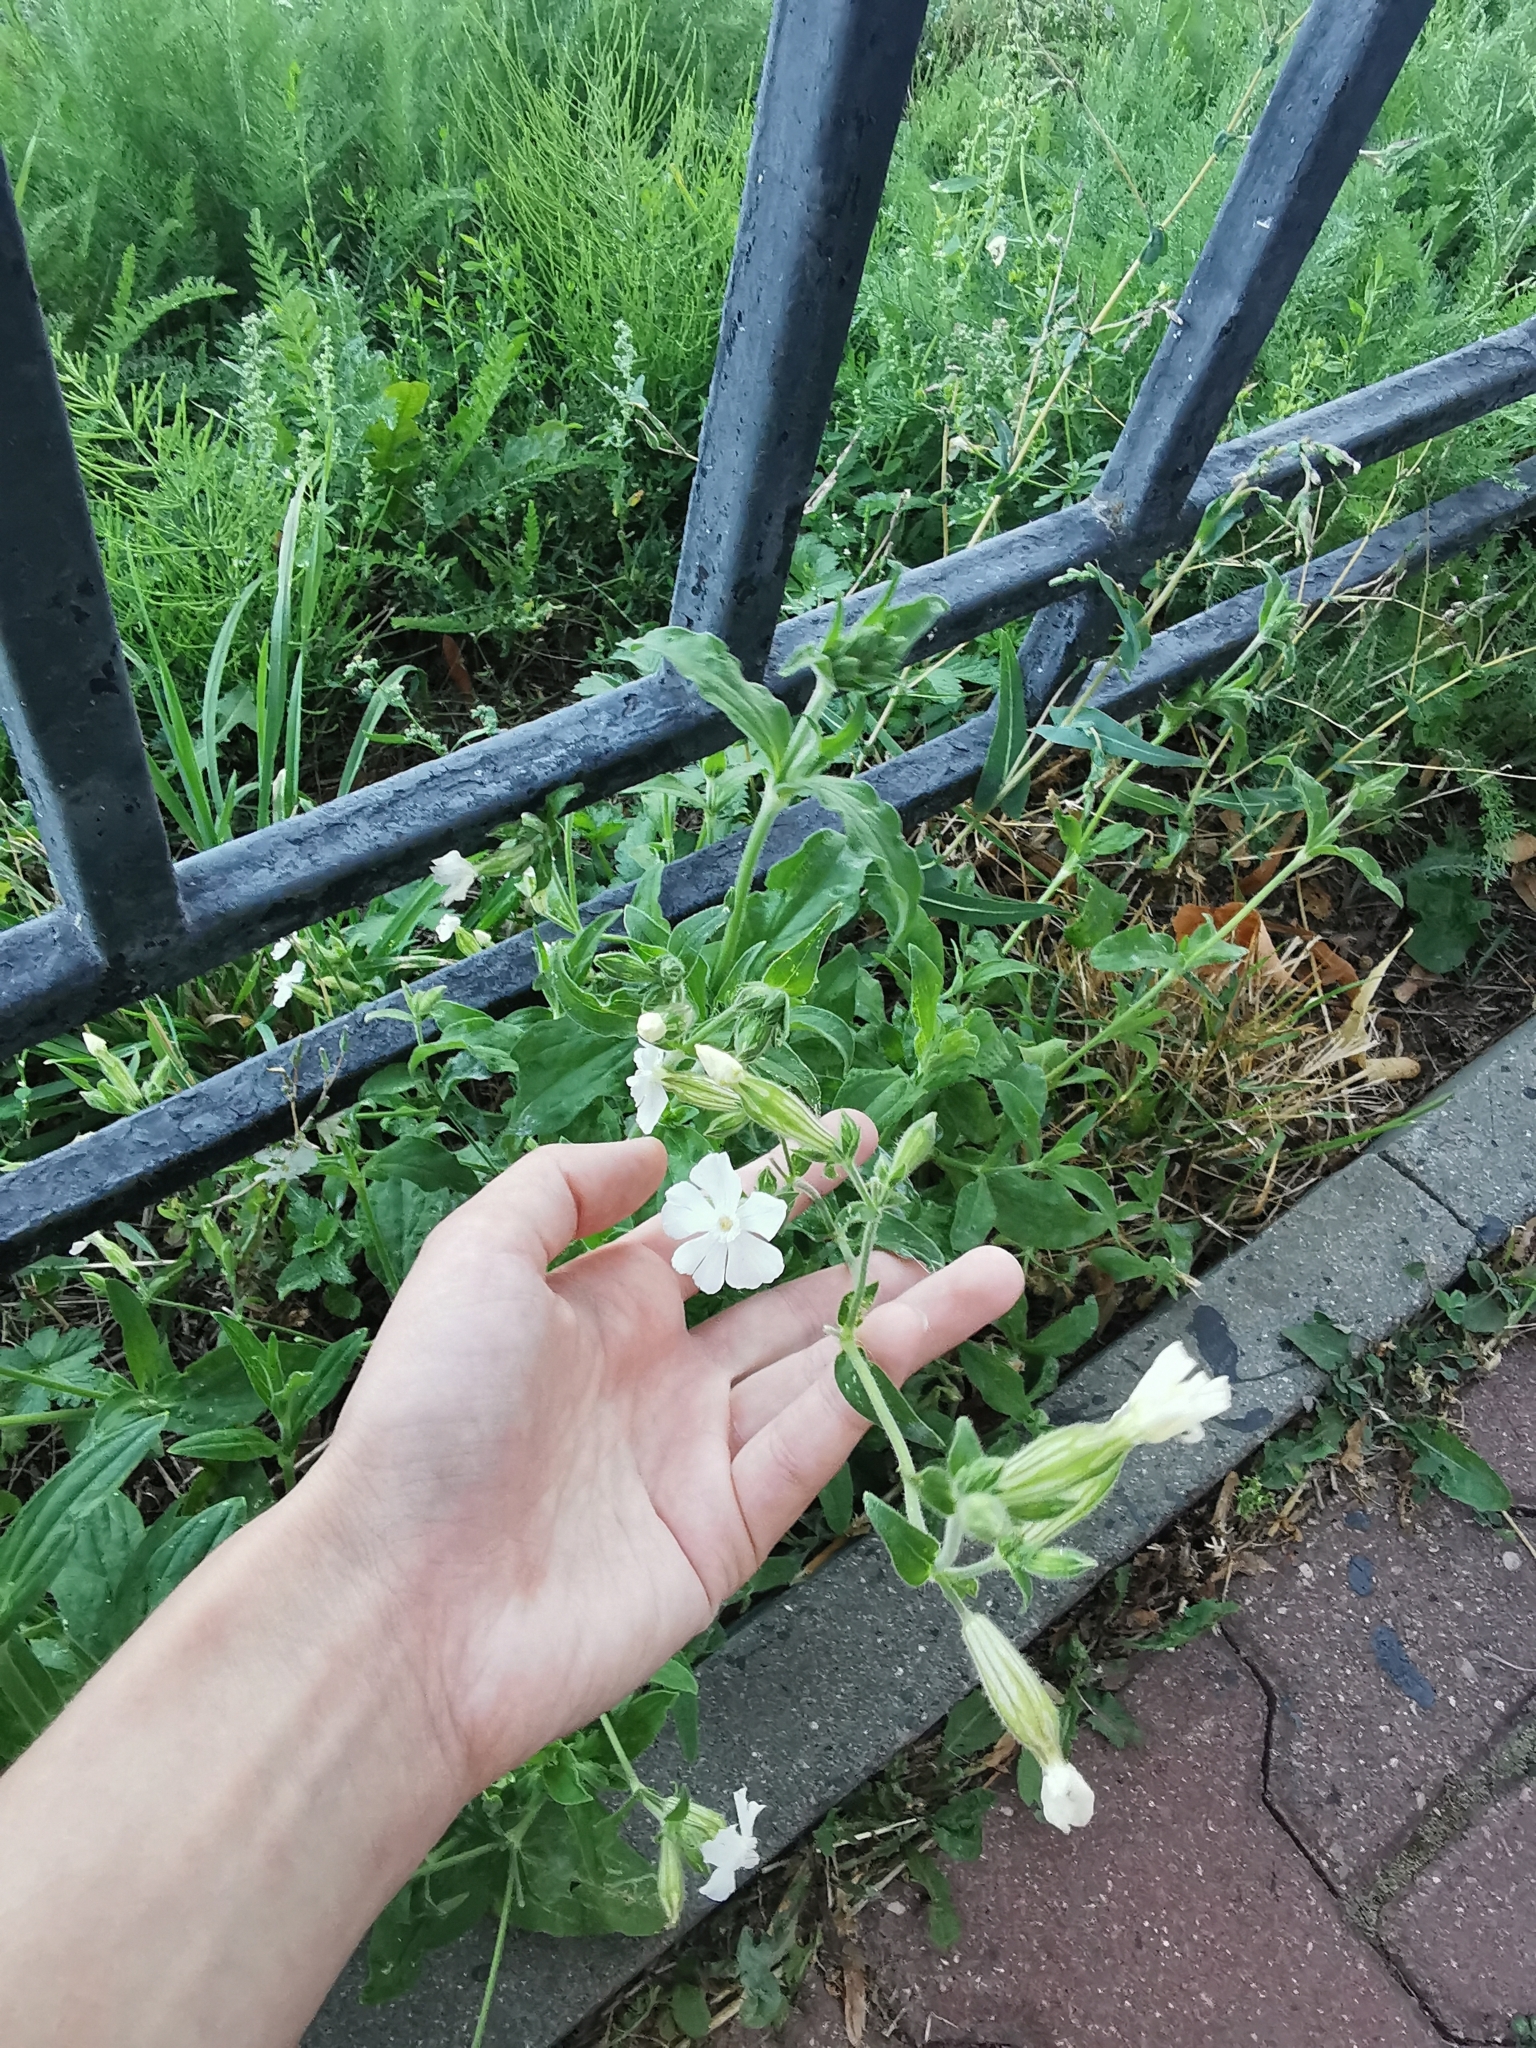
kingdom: Plantae
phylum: Tracheophyta
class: Magnoliopsida
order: Caryophyllales
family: Caryophyllaceae
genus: Silene
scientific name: Silene latifolia
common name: White campion
